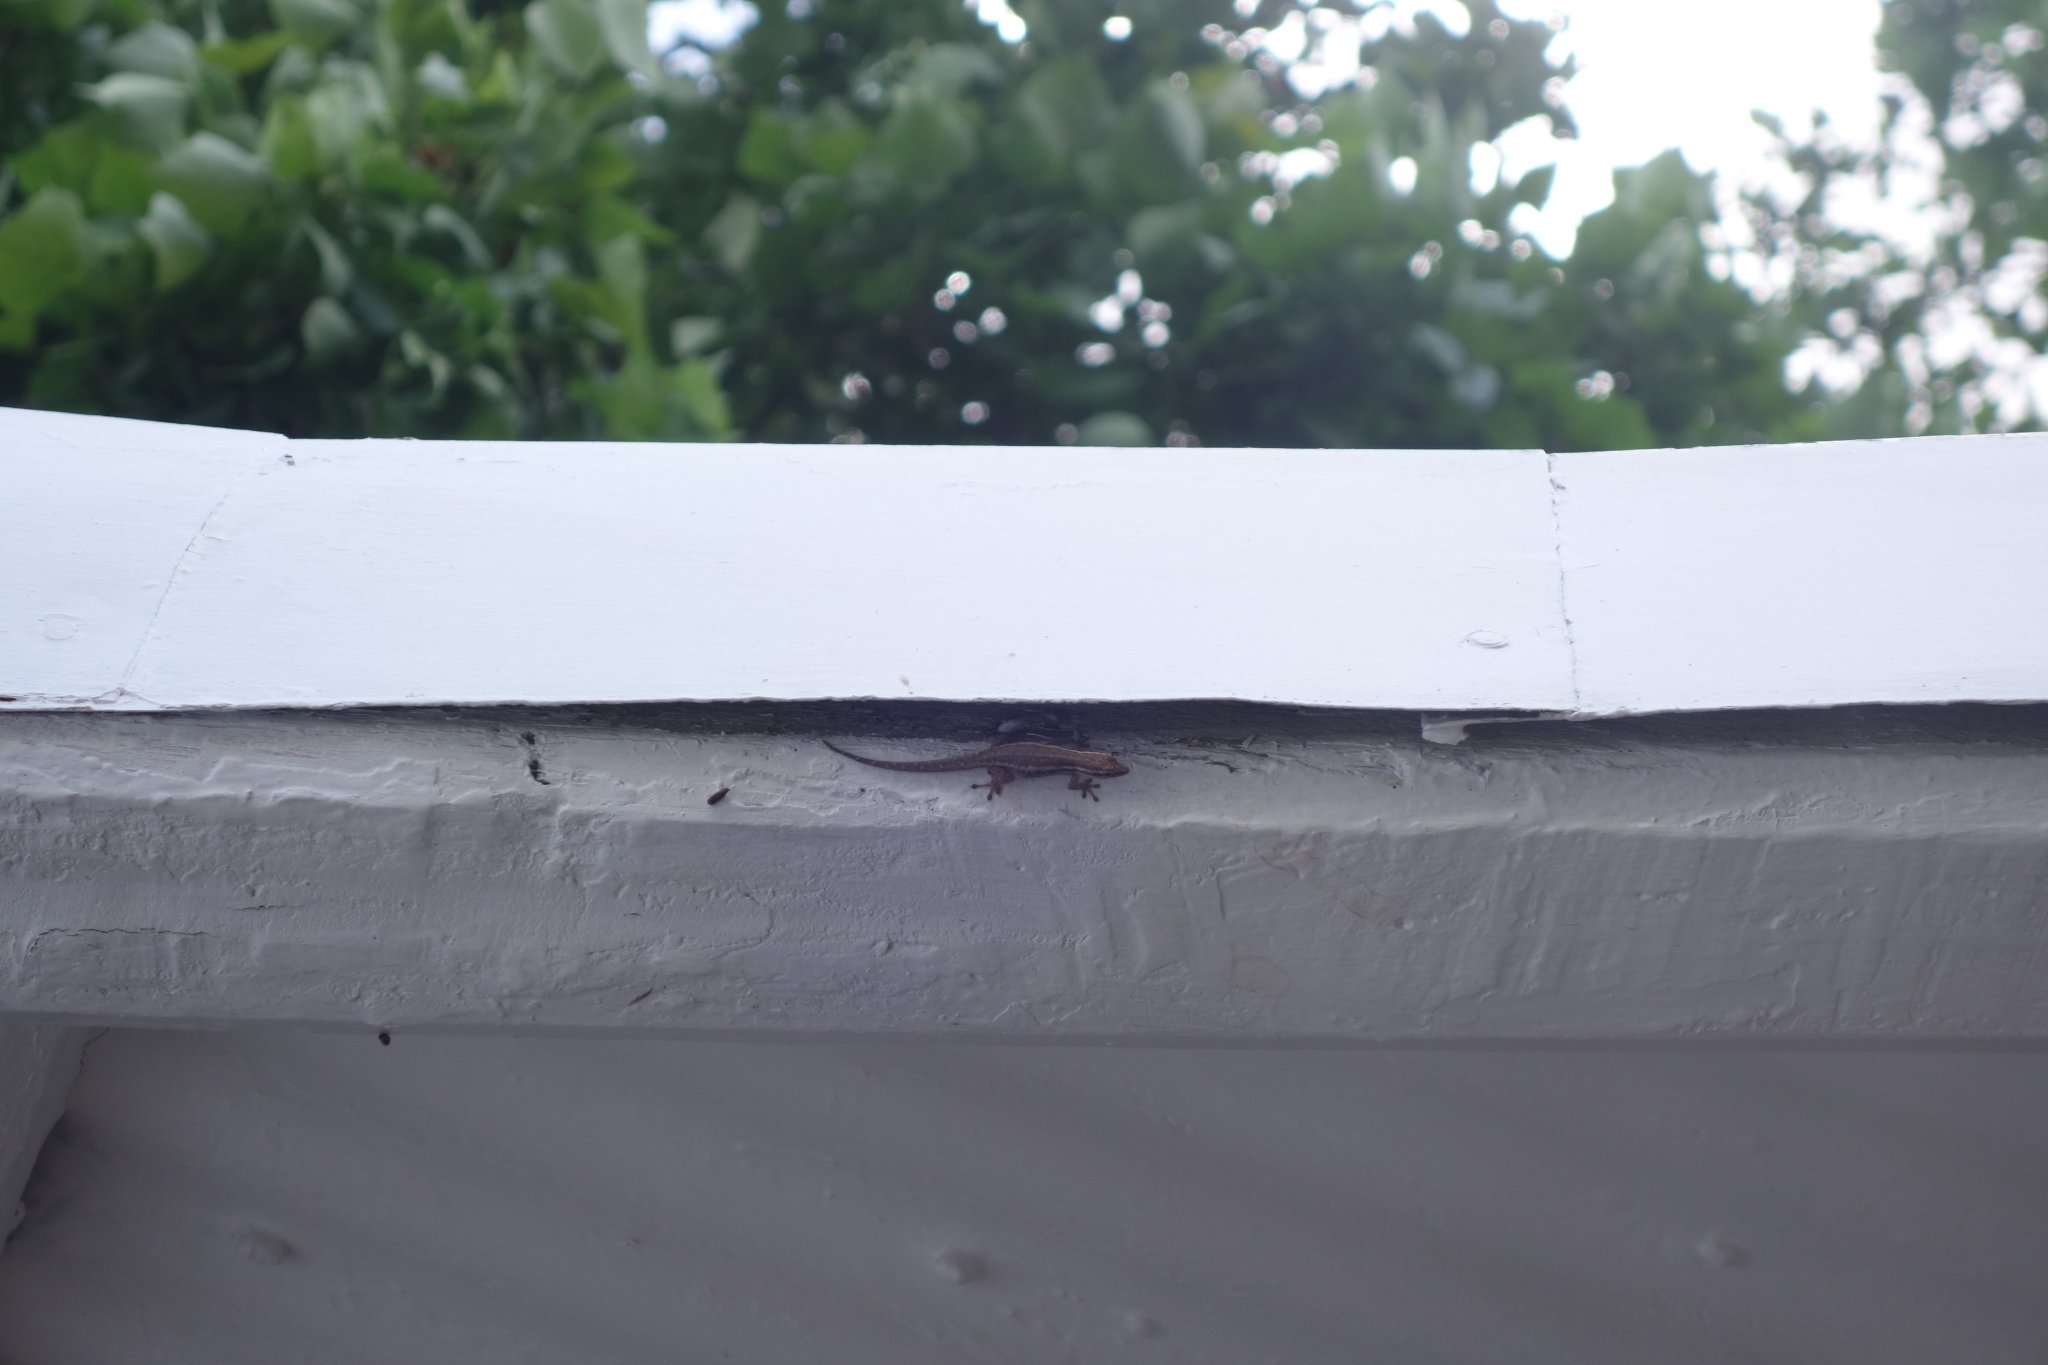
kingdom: Animalia
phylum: Chordata
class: Squamata
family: Gekkonidae
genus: Lygodactylus
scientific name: Lygodactylus capensis
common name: Cape dwarf gecko
